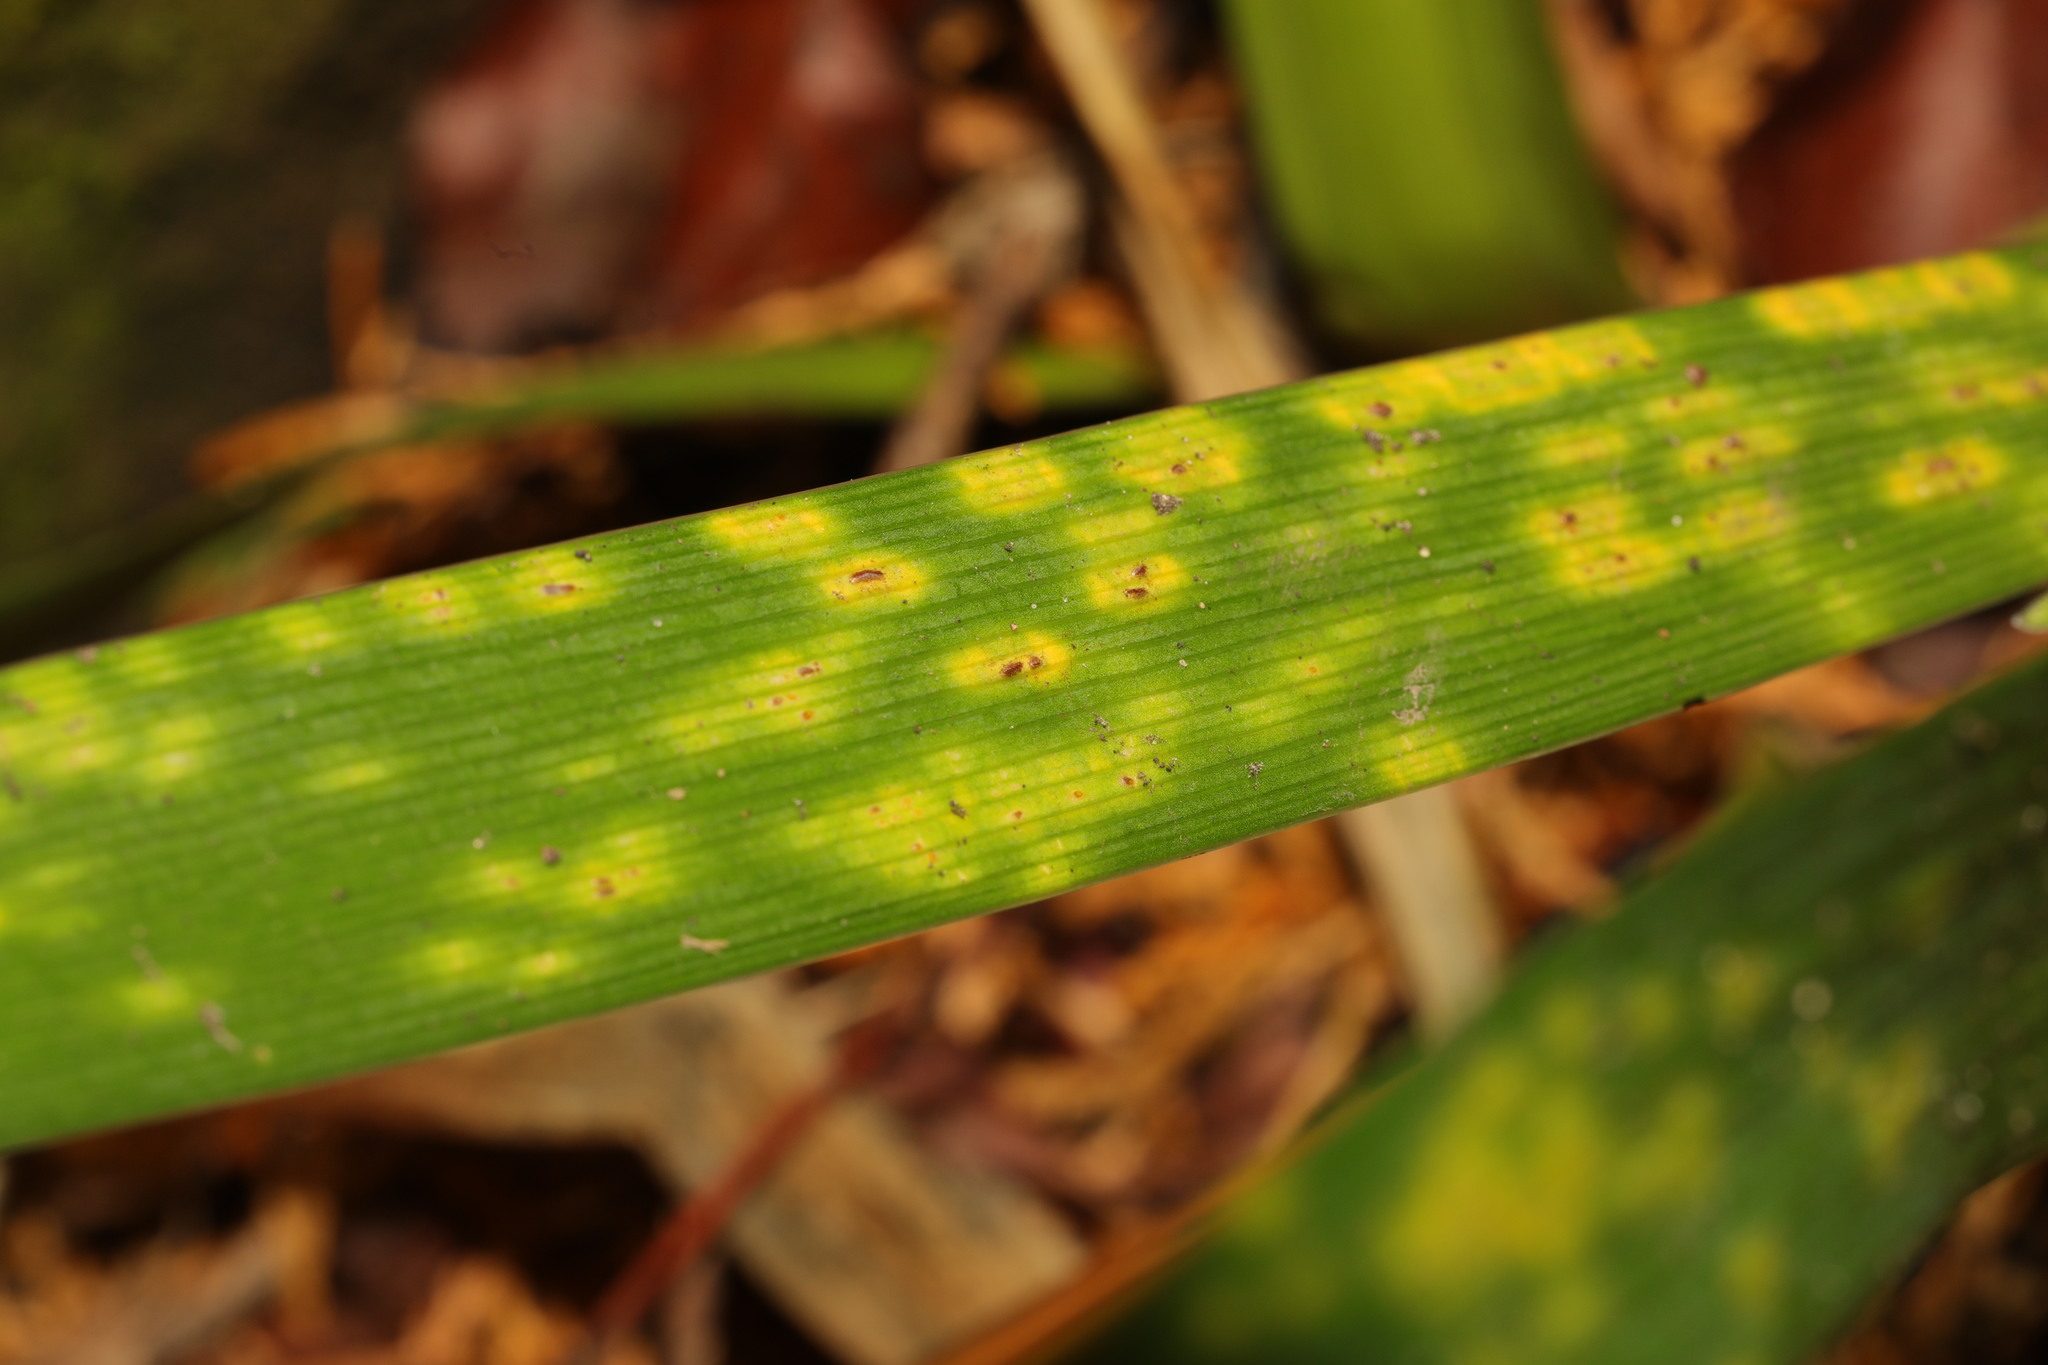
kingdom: Fungi
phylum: Basidiomycota
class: Pucciniomycetes
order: Pucciniales
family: Pucciniaceae
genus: Puccinia
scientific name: Puccinia iridis
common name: Iris rust
